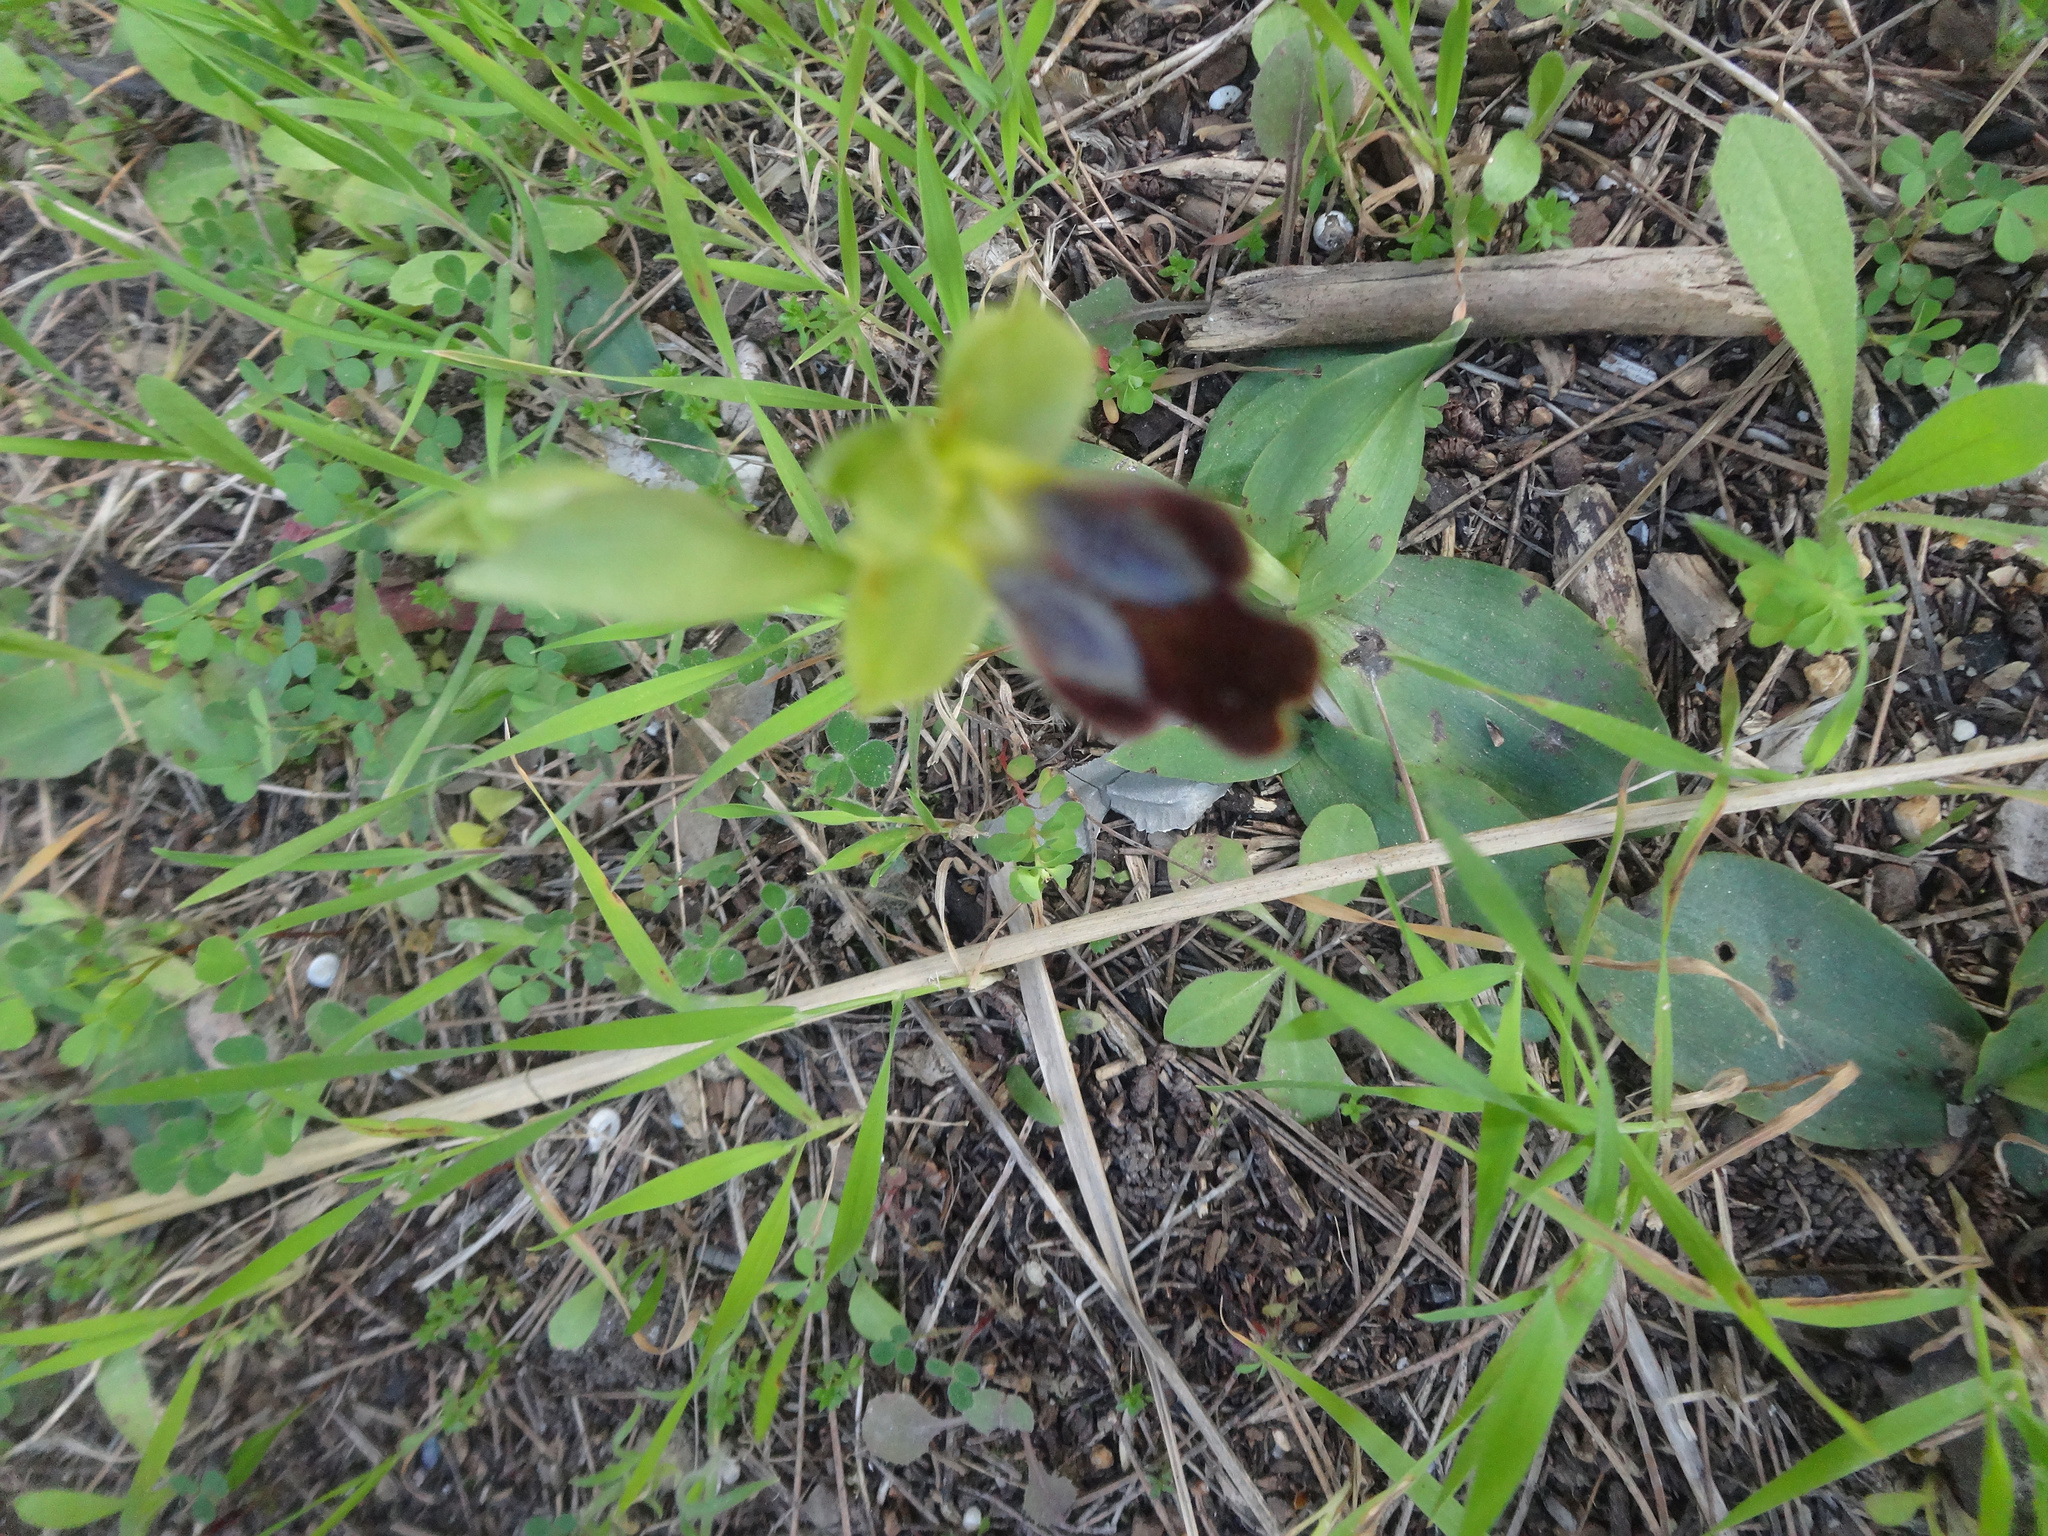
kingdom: Plantae
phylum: Tracheophyta
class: Liliopsida
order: Asparagales
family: Orchidaceae
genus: Ophrys
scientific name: Ophrys fusca
